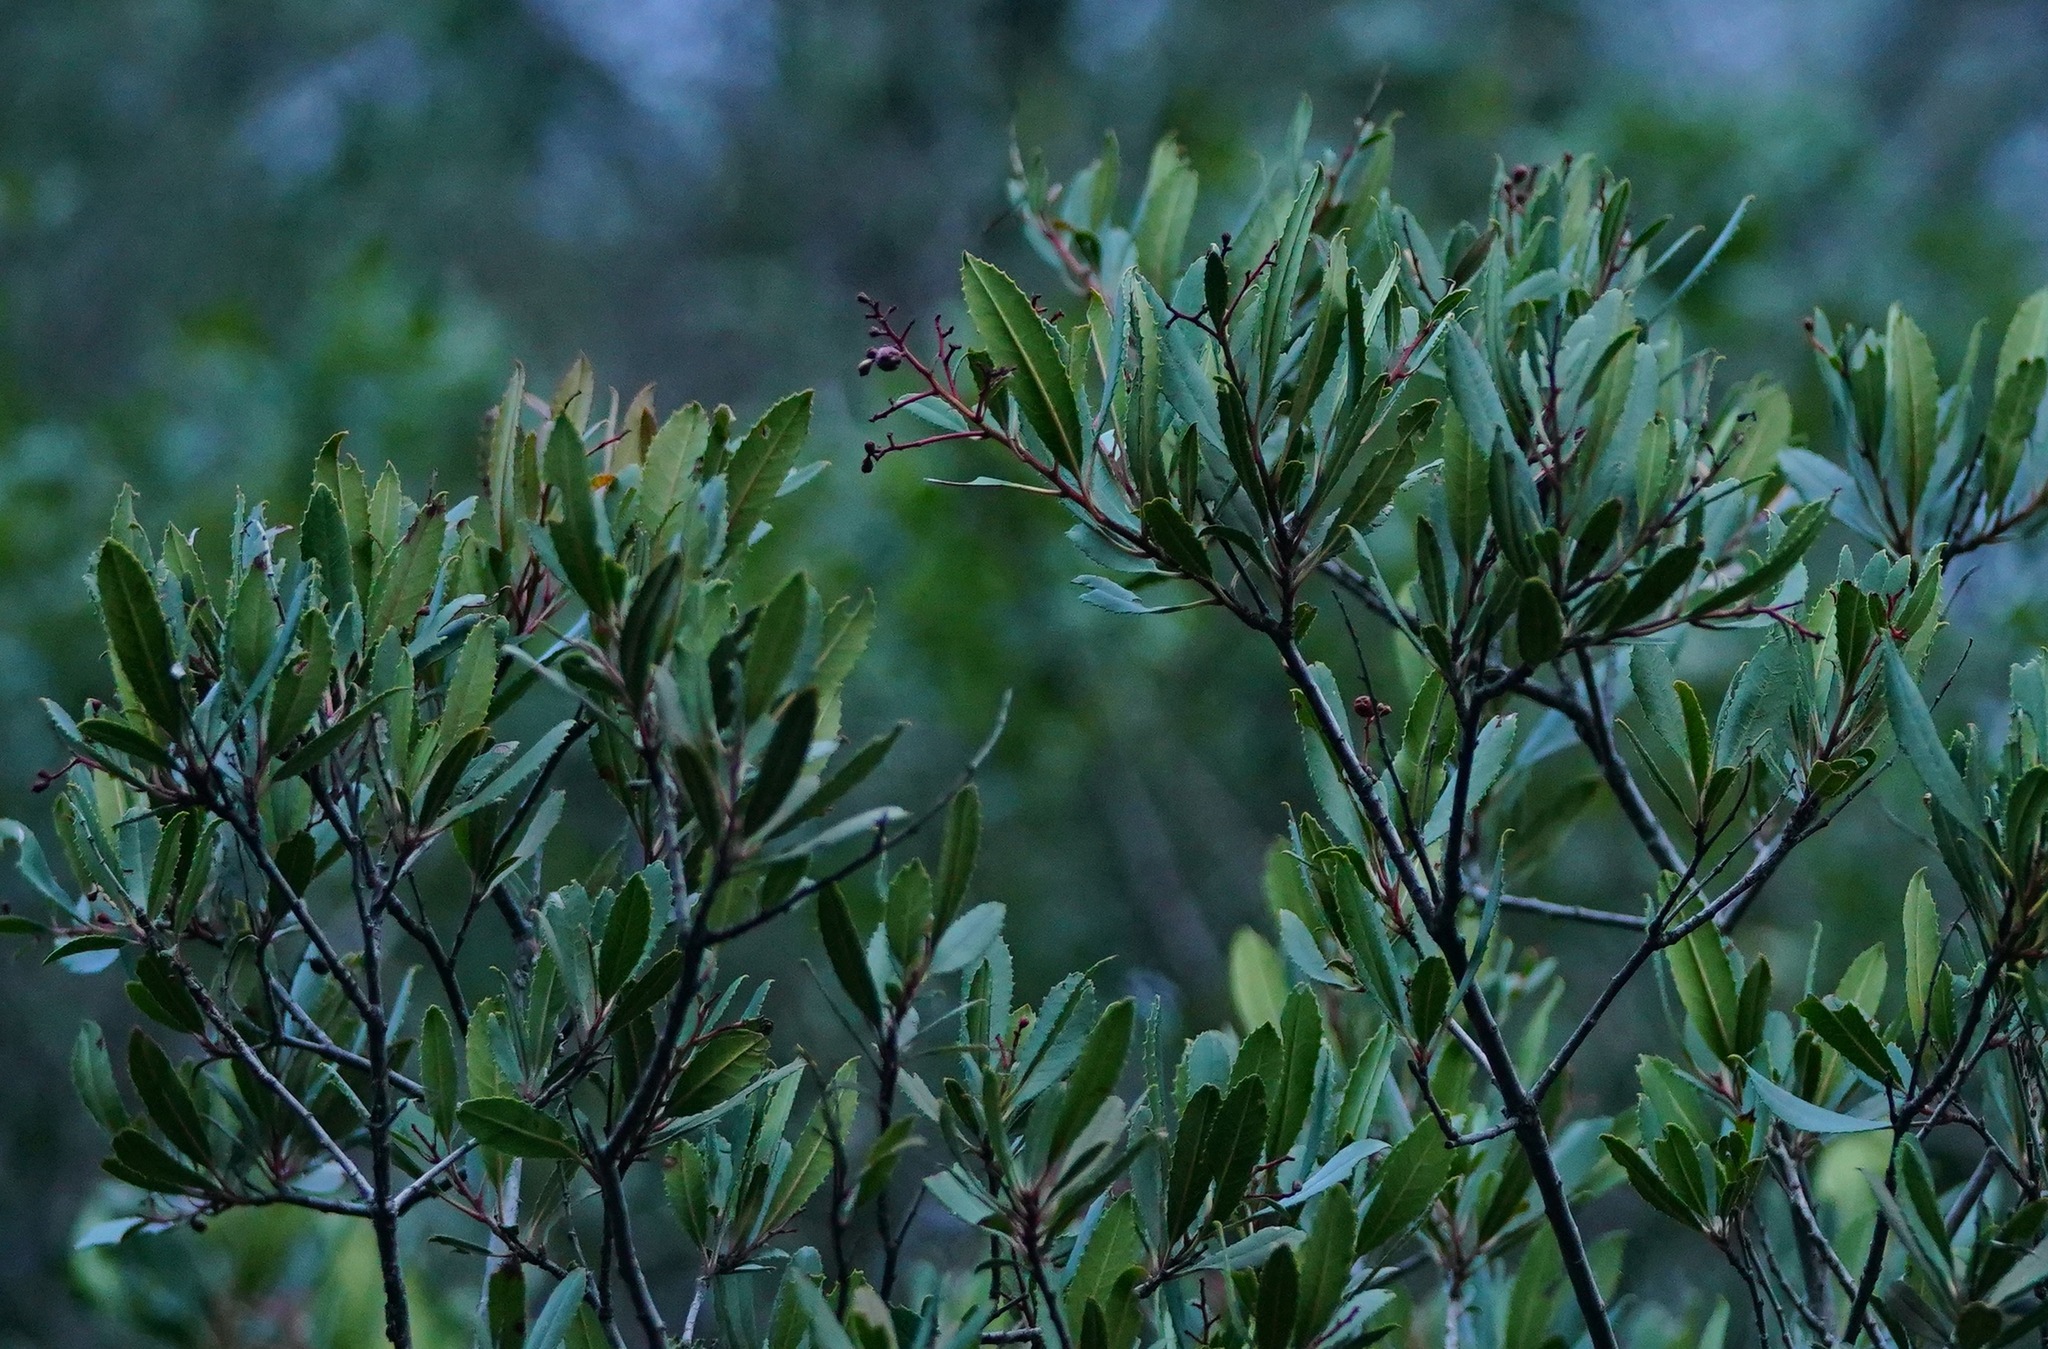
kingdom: Plantae
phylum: Tracheophyta
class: Magnoliopsida
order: Rosales
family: Rosaceae
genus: Heteromeles
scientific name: Heteromeles arbutifolia
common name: California-holly
